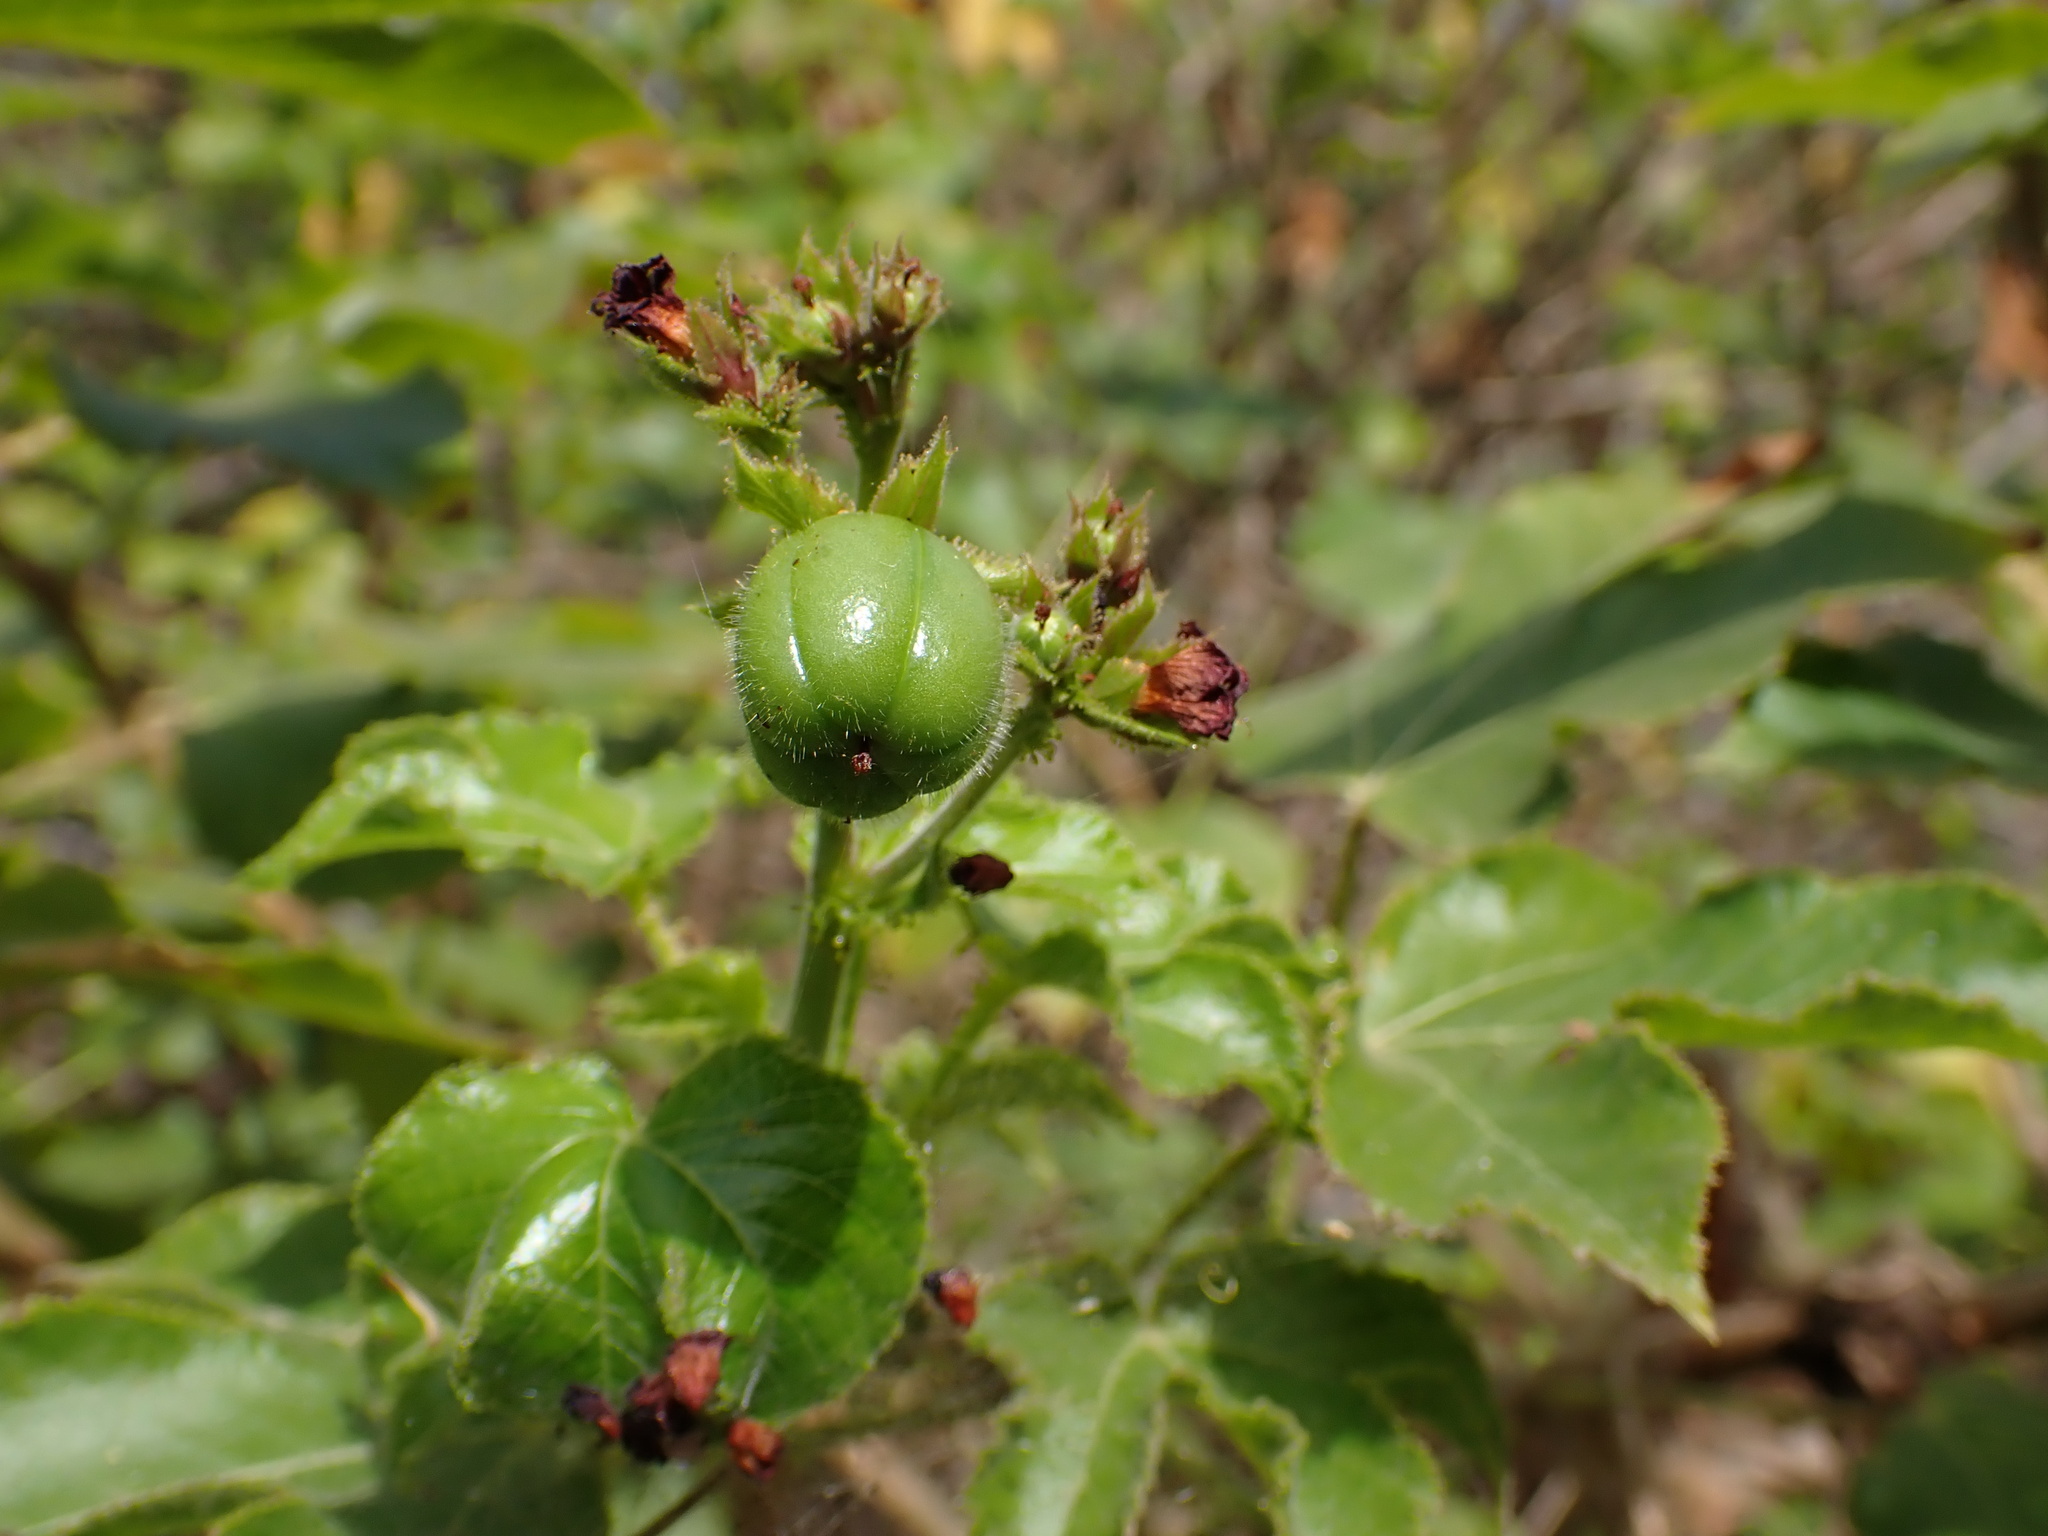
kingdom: Plantae
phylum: Tracheophyta
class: Magnoliopsida
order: Malpighiales
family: Euphorbiaceae
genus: Jatropha
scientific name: Jatropha gossypiifolia
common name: Bellyache bush
